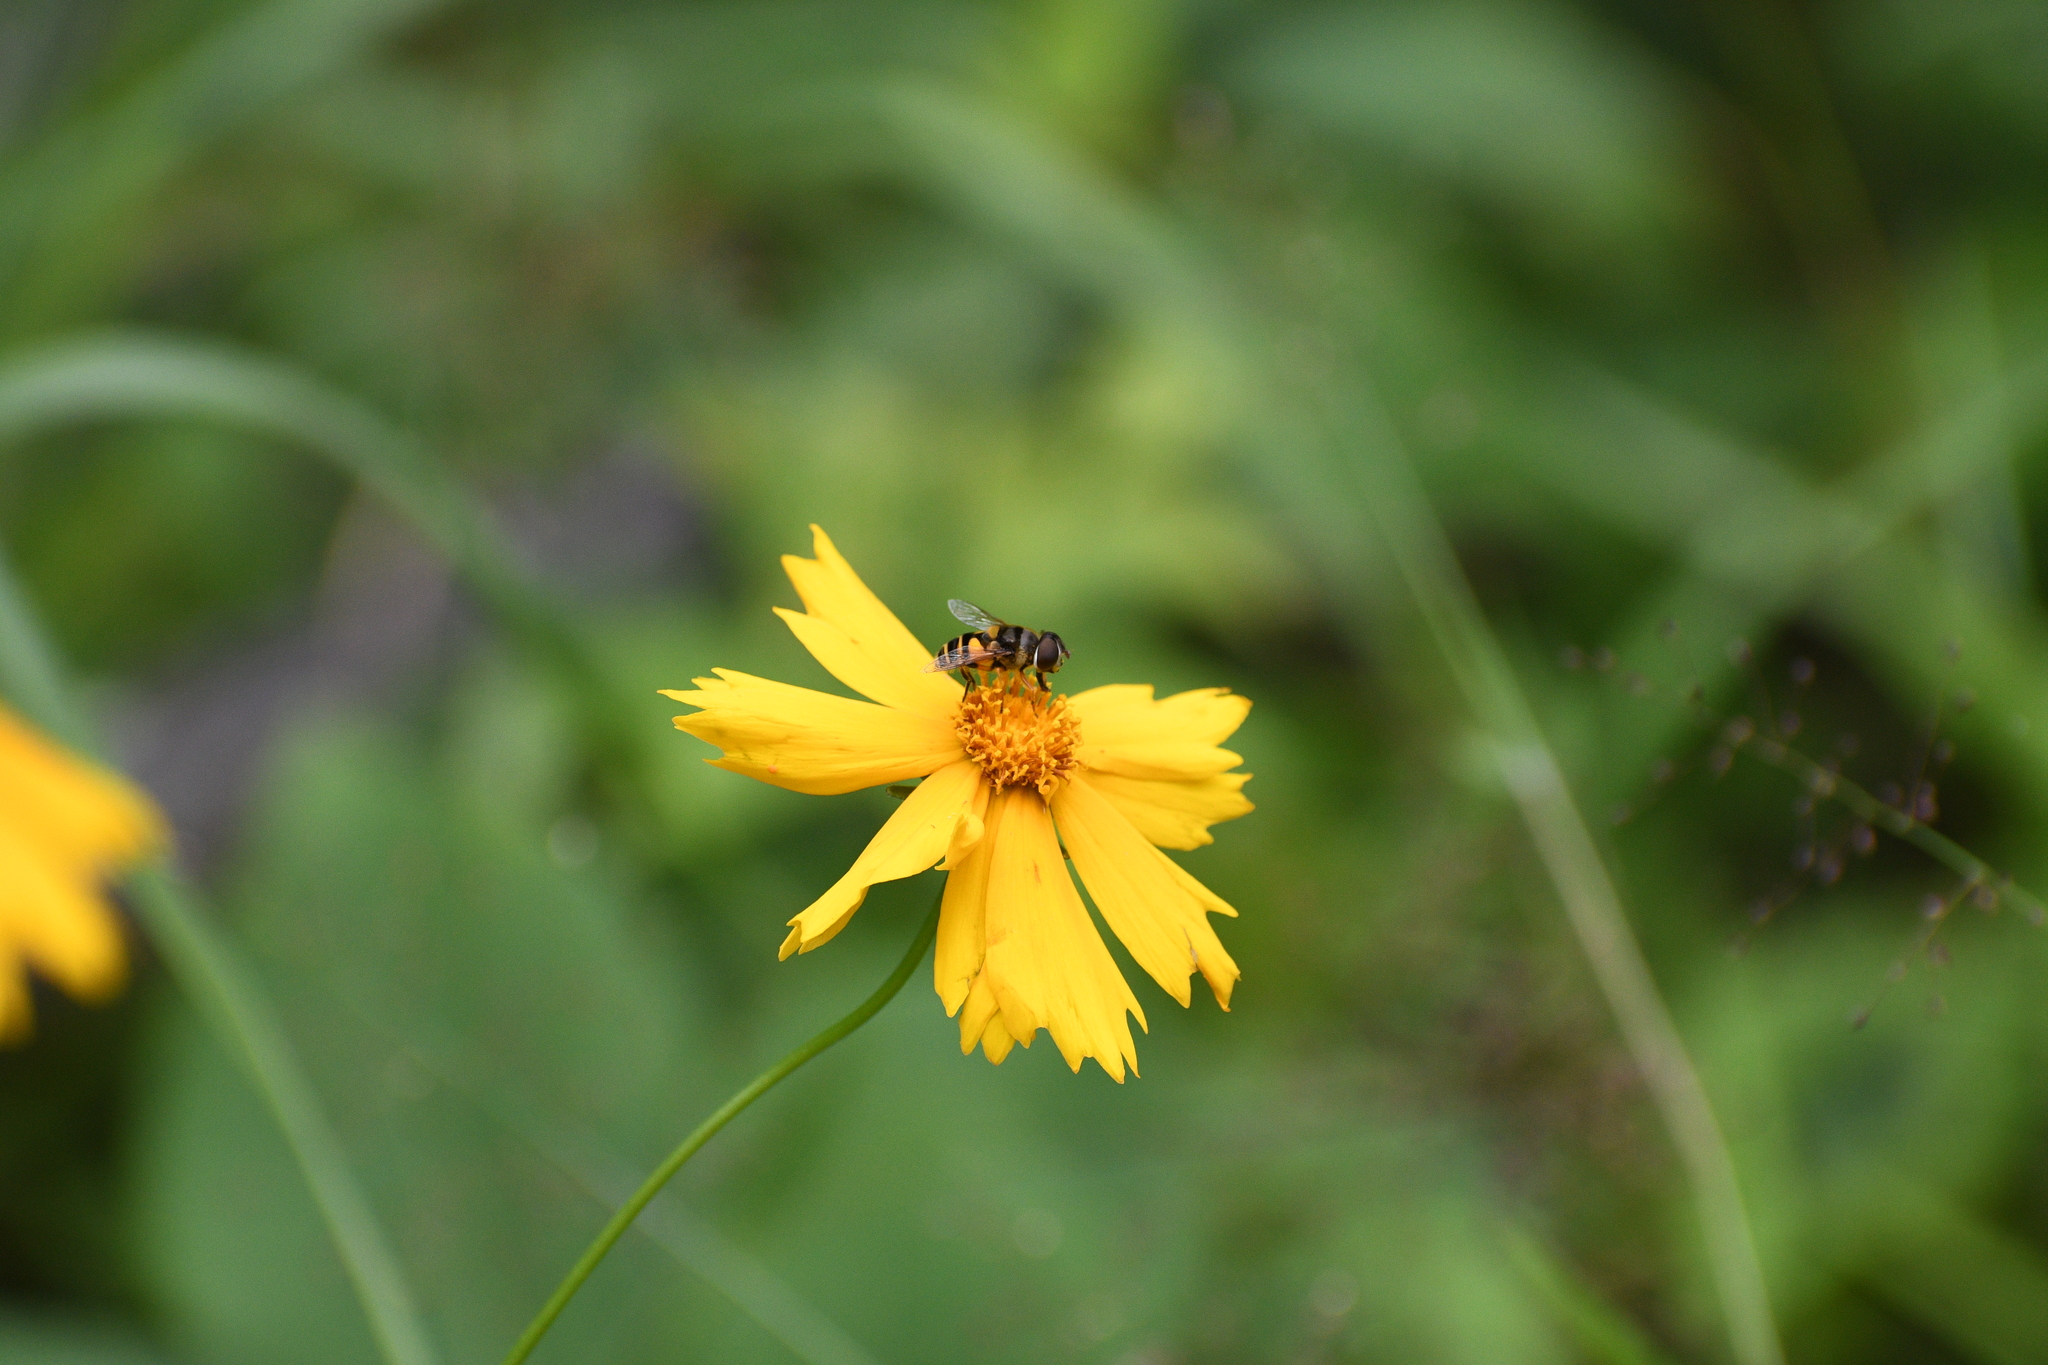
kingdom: Animalia
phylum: Arthropoda
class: Insecta
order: Diptera
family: Syrphidae
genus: Eristalis
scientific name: Eristalis transversa
